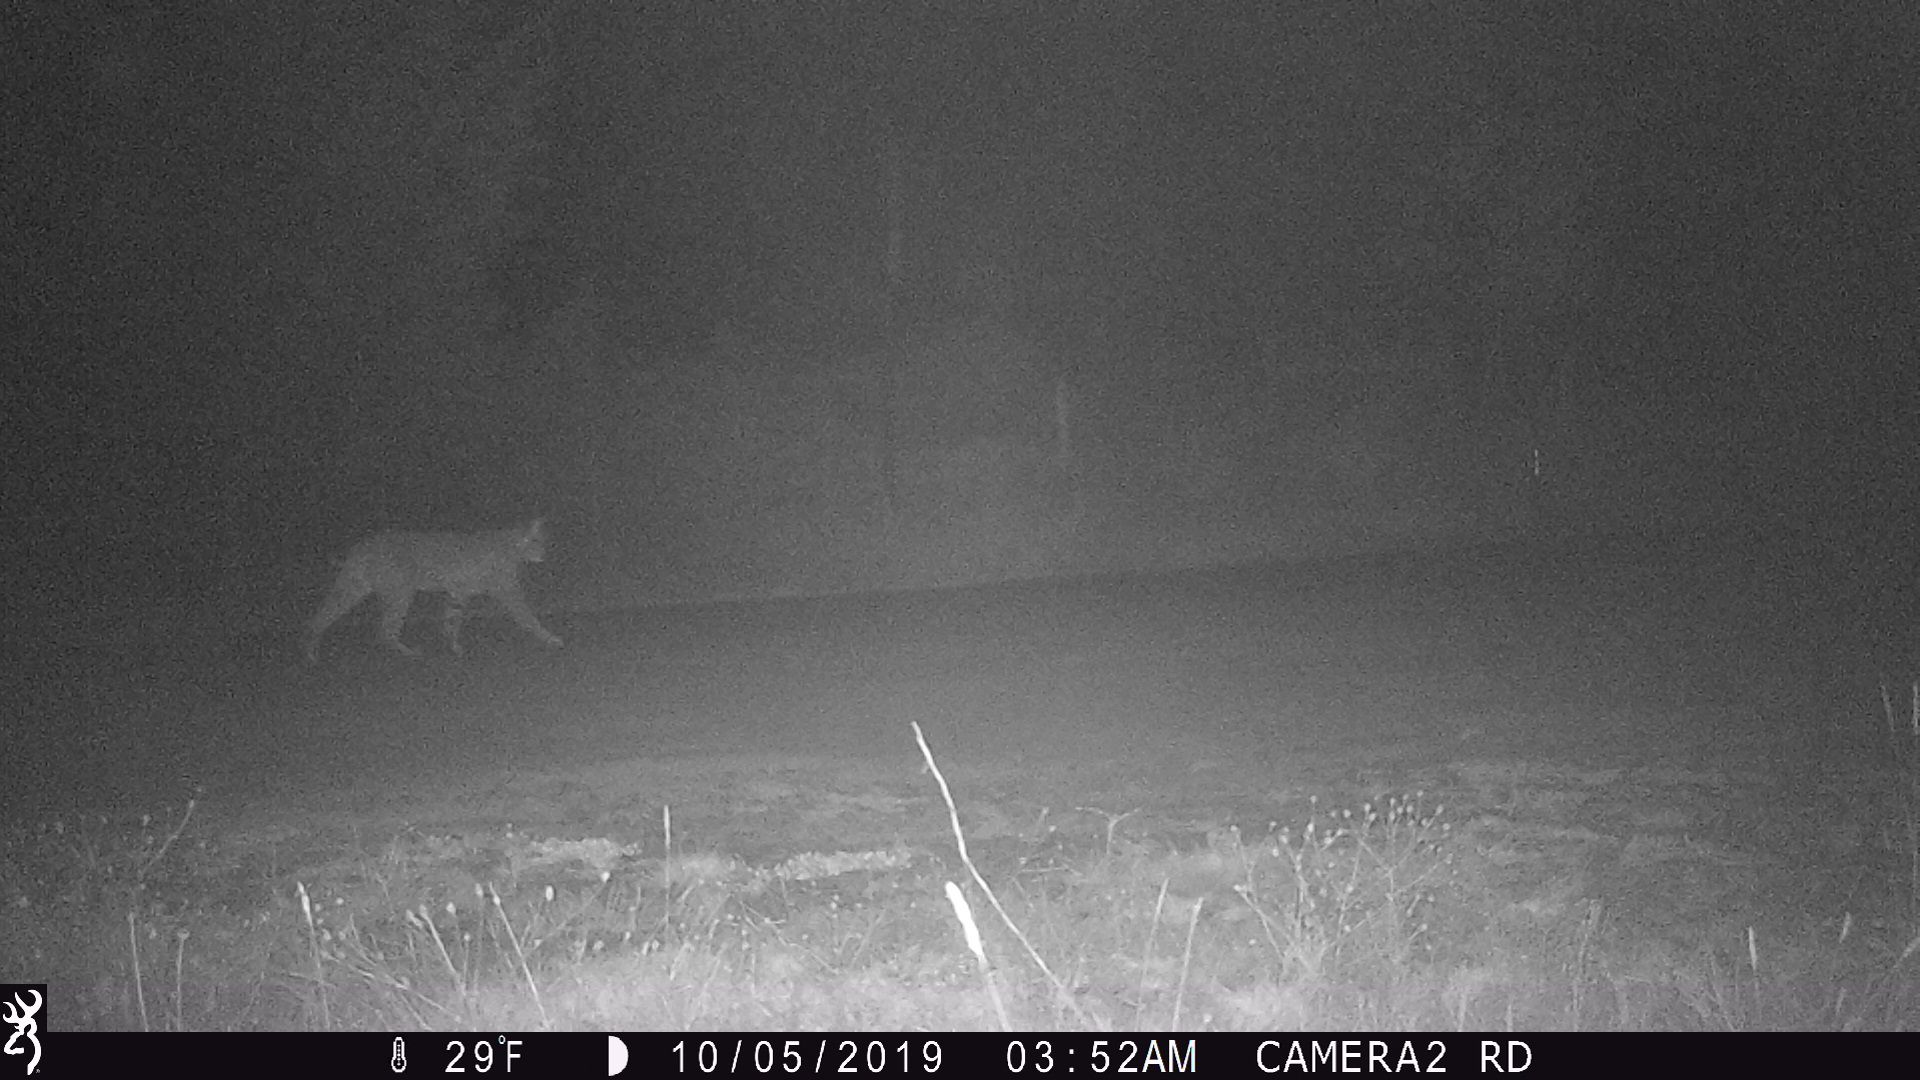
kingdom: Animalia
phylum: Chordata
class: Mammalia
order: Carnivora
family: Felidae
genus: Lynx
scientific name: Lynx rufus
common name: Bobcat
